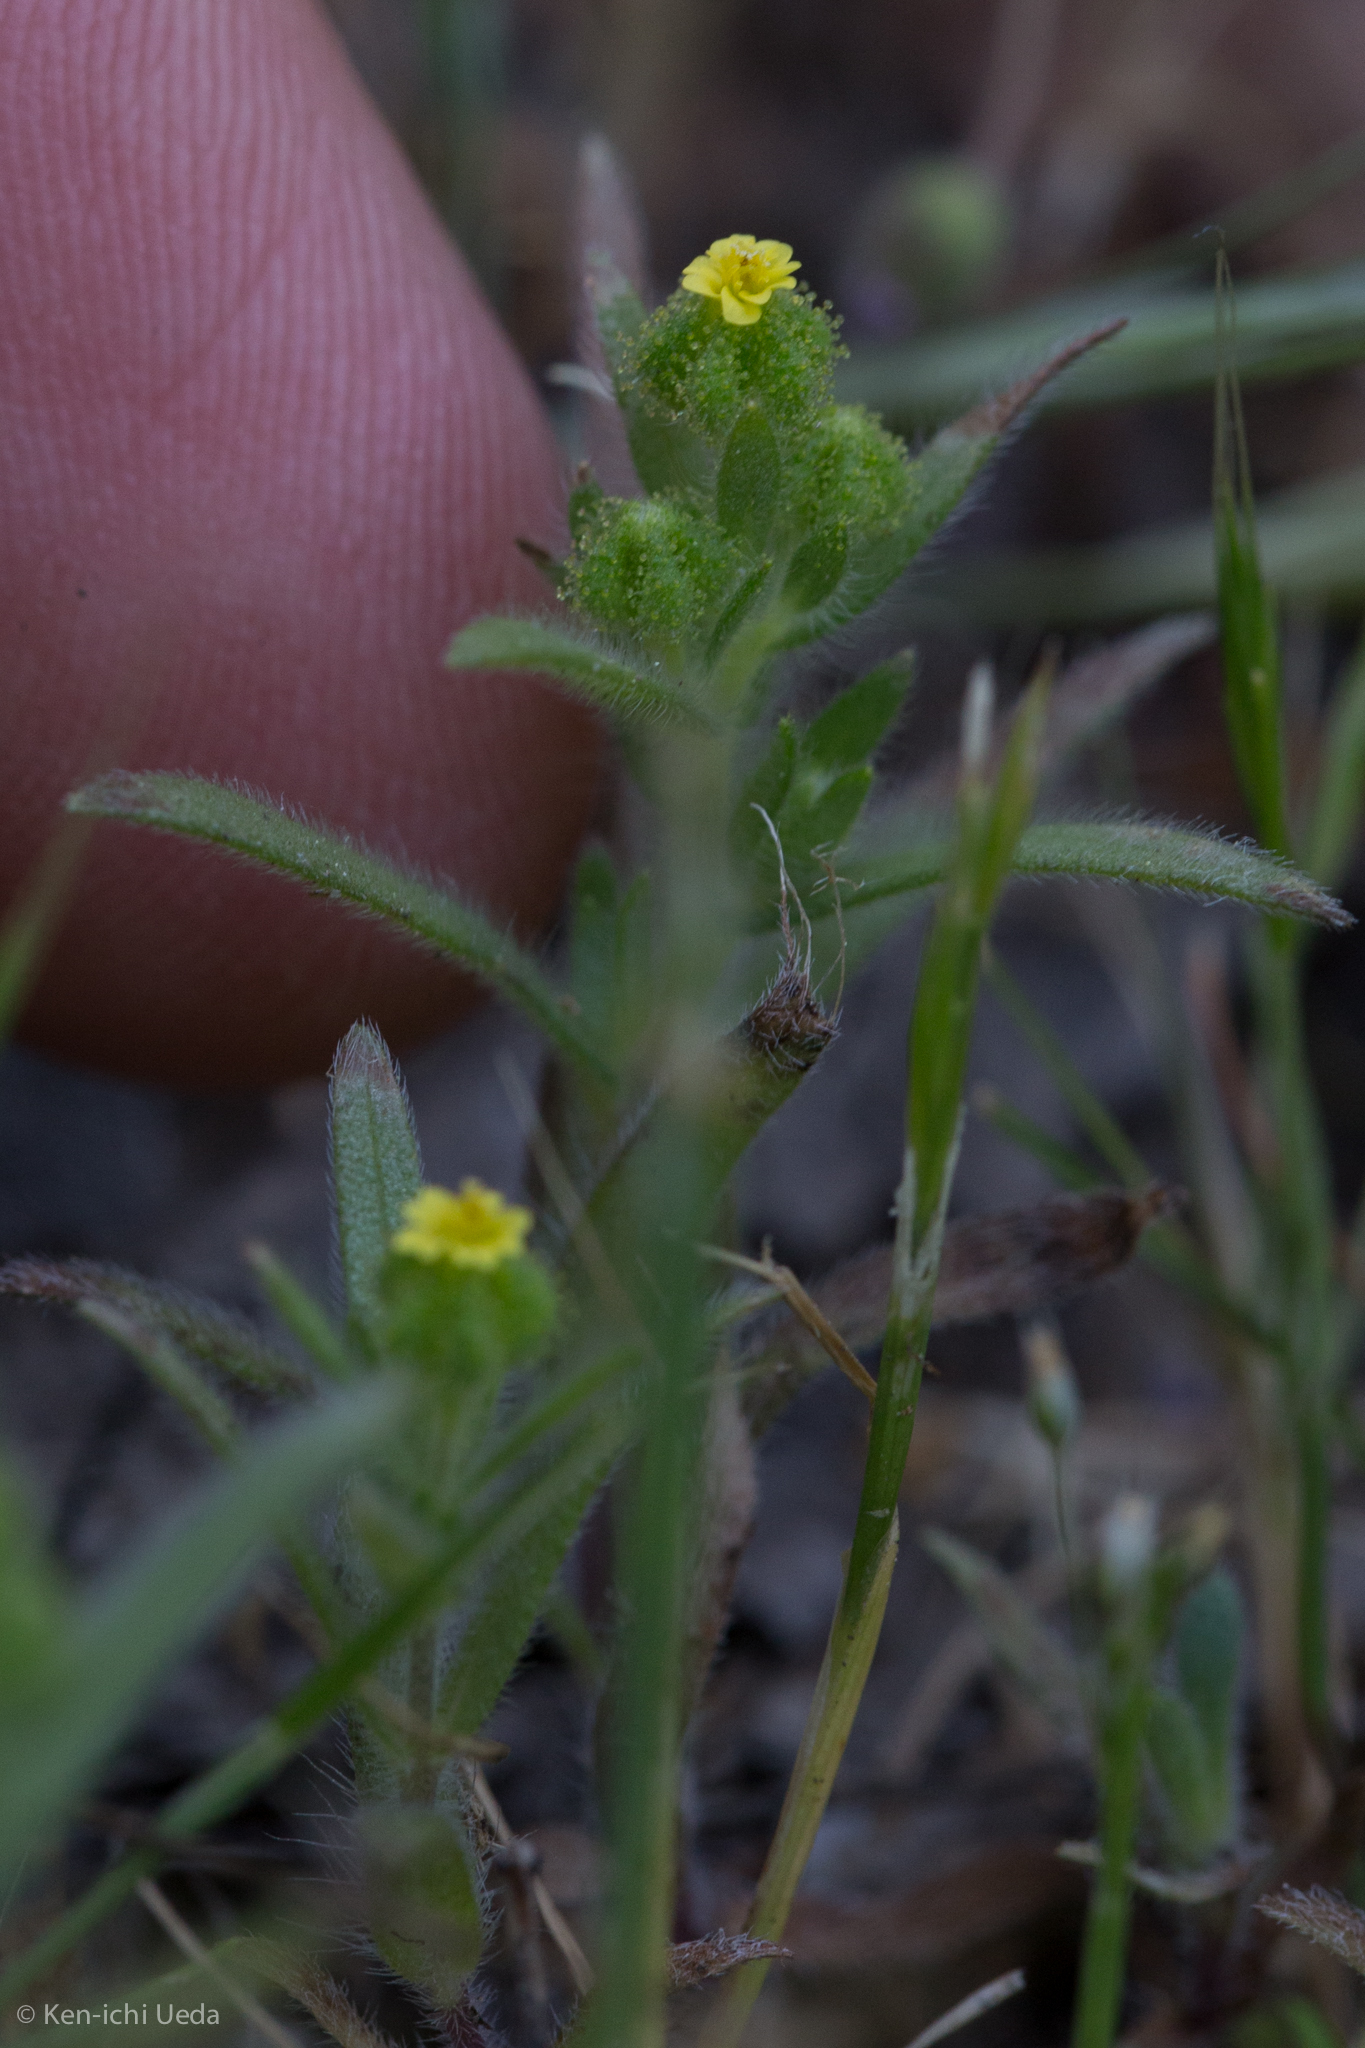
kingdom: Plantae
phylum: Tracheophyta
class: Magnoliopsida
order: Asterales
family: Asteraceae
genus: Madia
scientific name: Madia exigua
